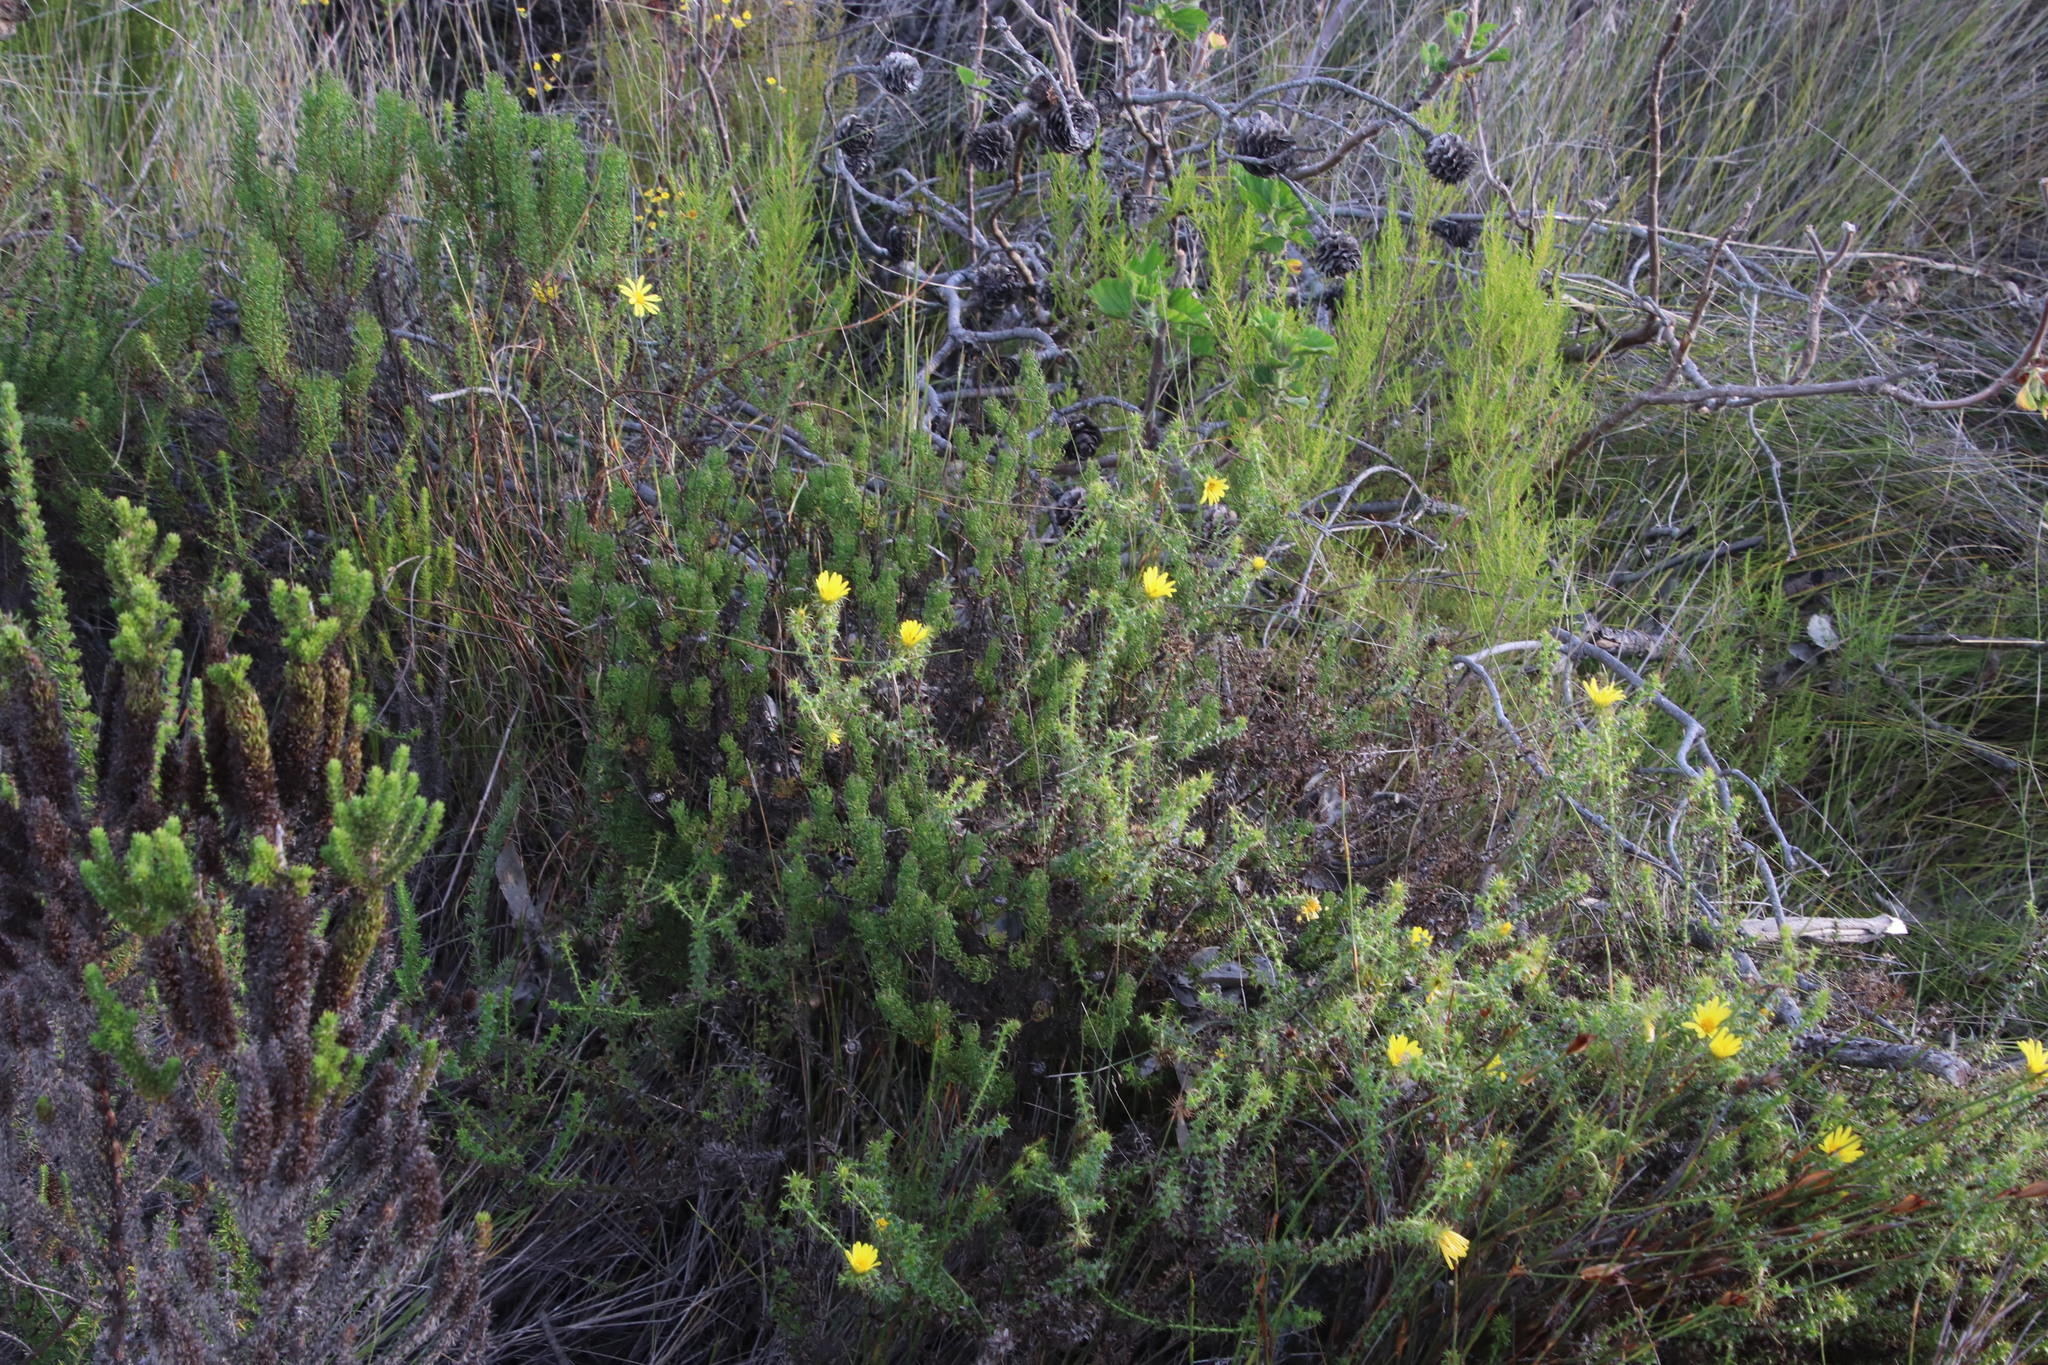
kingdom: Plantae
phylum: Tracheophyta
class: Magnoliopsida
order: Asterales
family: Asteraceae
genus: Cullumia
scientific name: Cullumia setosa
